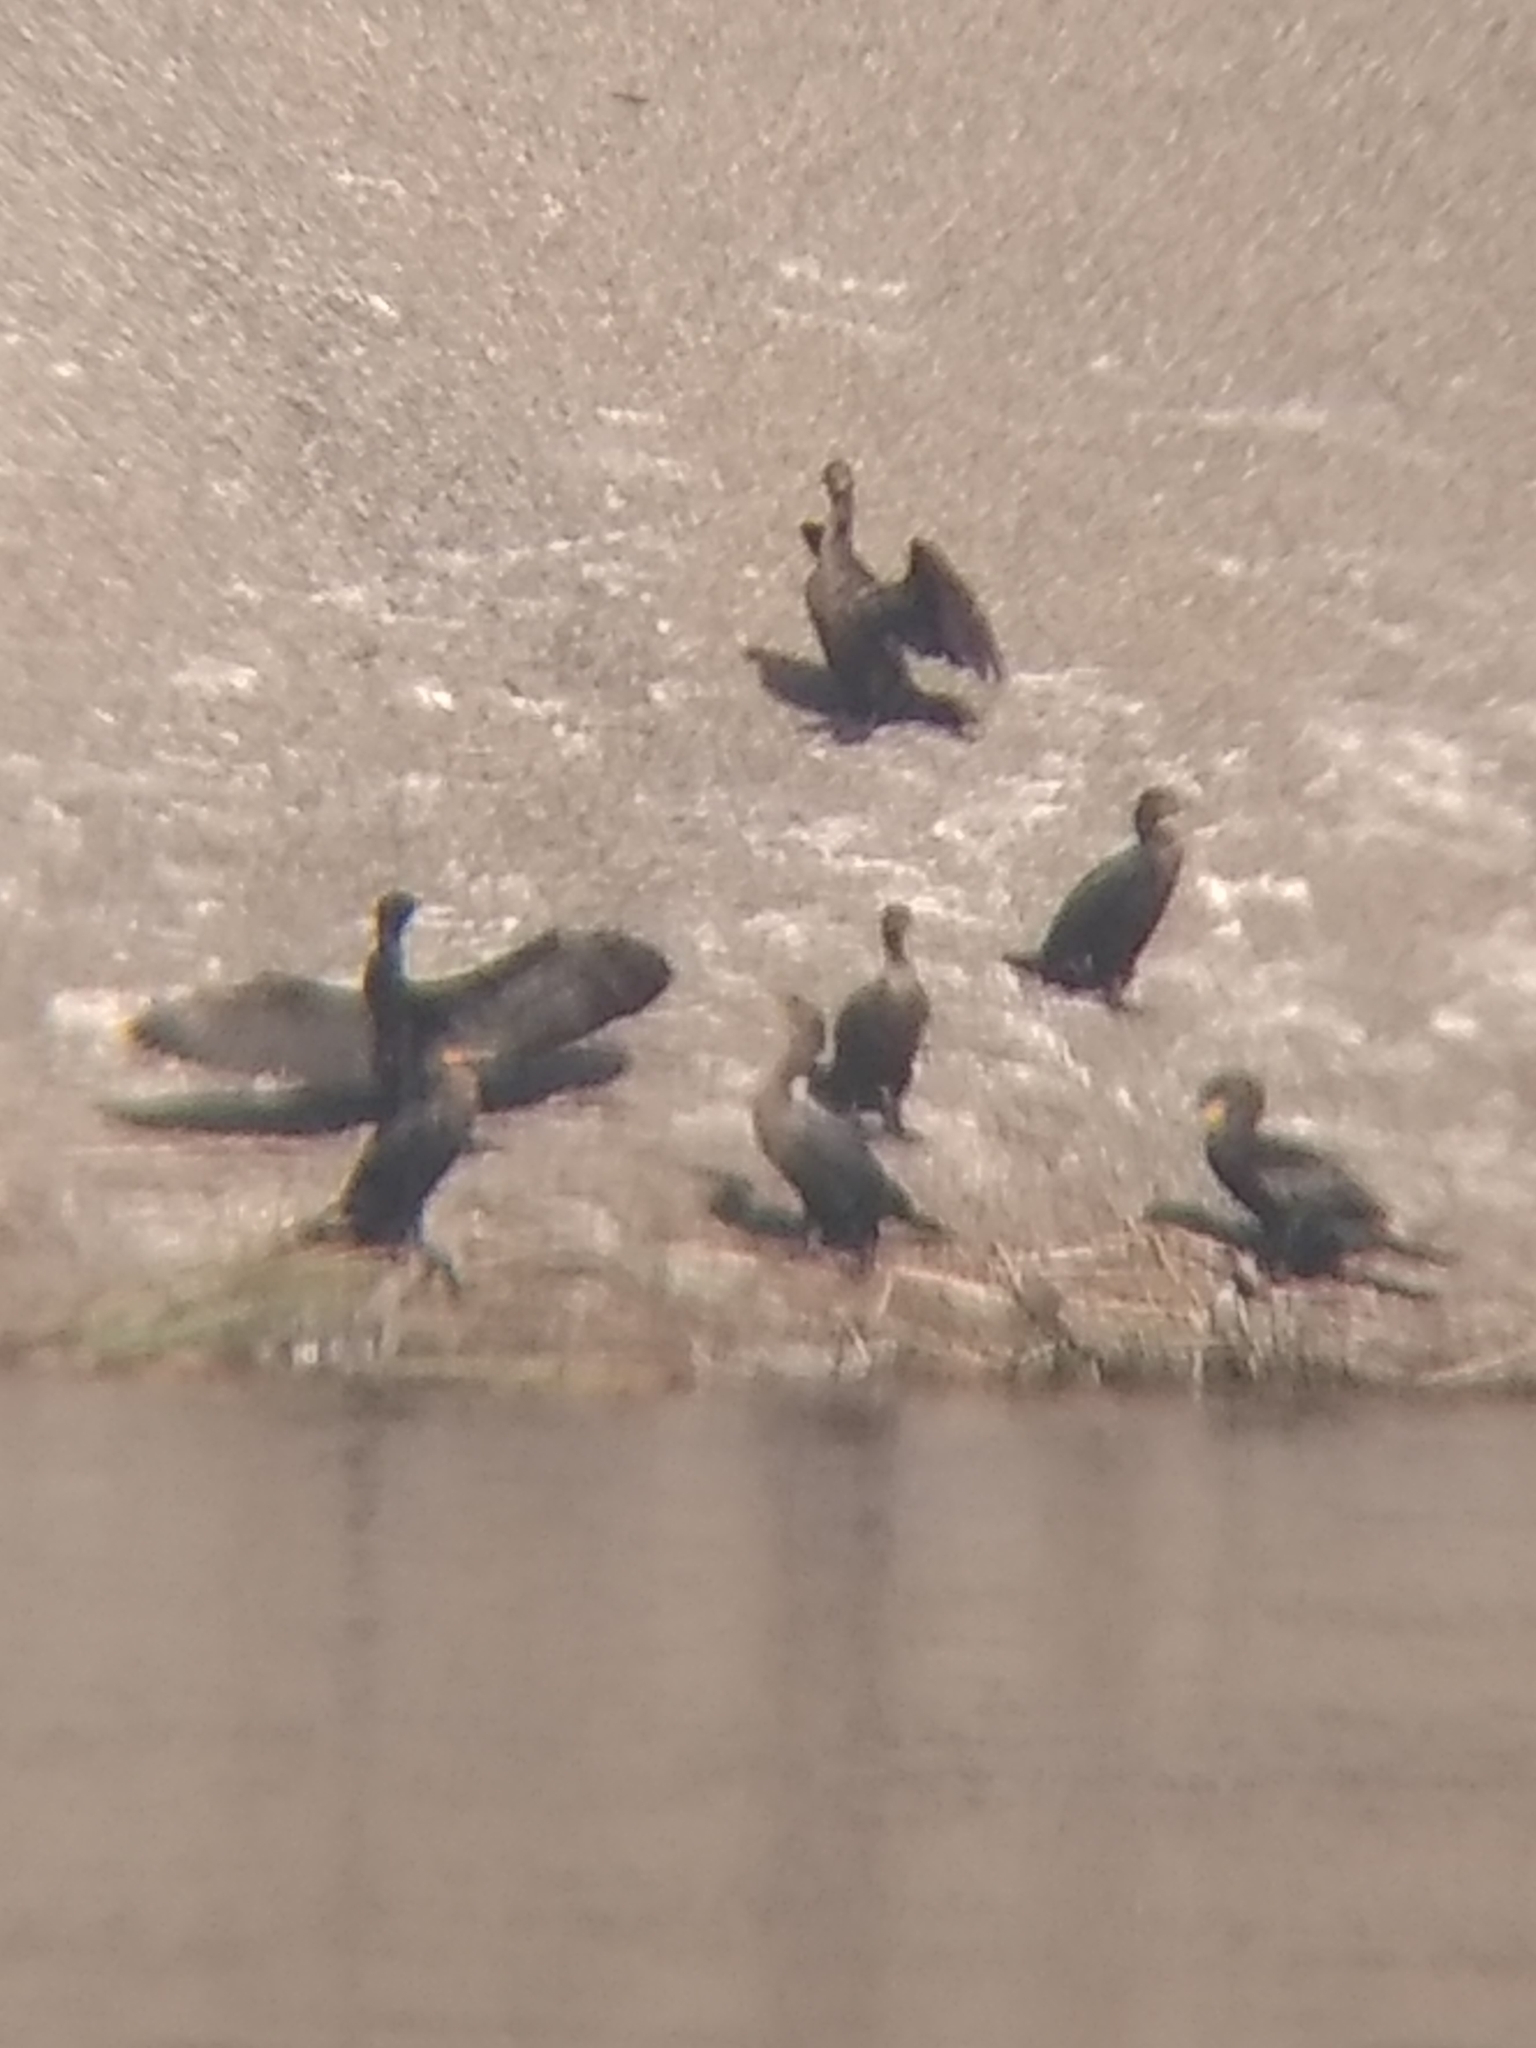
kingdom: Animalia
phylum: Chordata
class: Aves
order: Suliformes
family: Phalacrocoracidae
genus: Phalacrocorax
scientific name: Phalacrocorax auritus
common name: Double-crested cormorant
